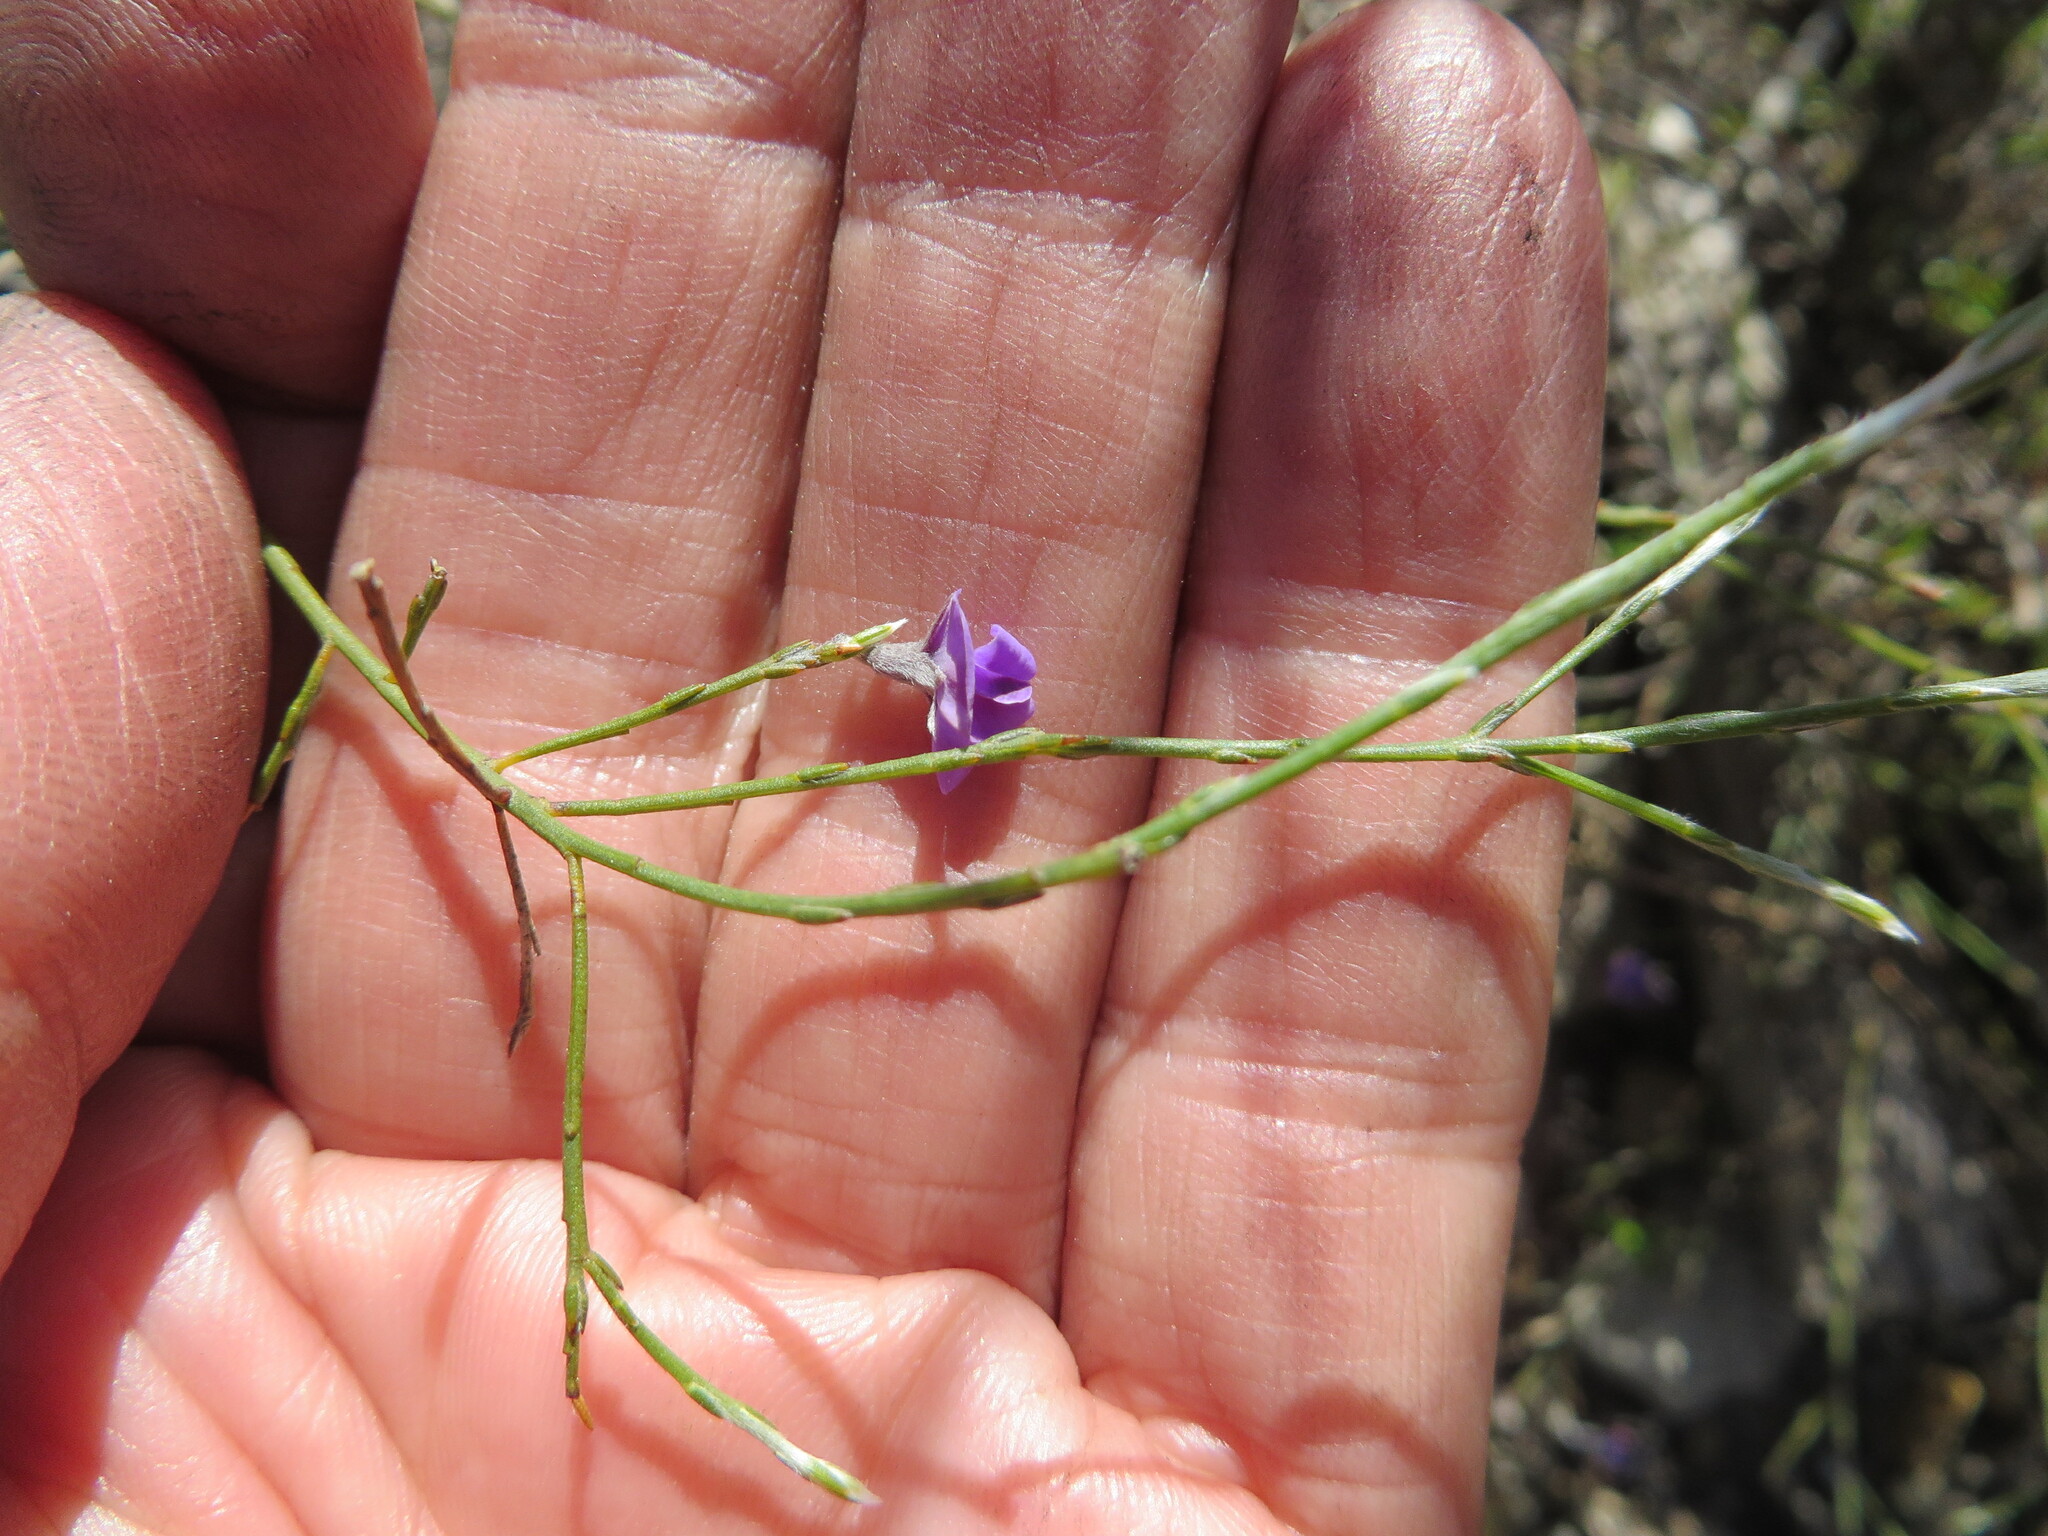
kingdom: Plantae
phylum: Tracheophyta
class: Magnoliopsida
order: Fabales
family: Fabaceae
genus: Amphithalea
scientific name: Amphithalea biovulata
